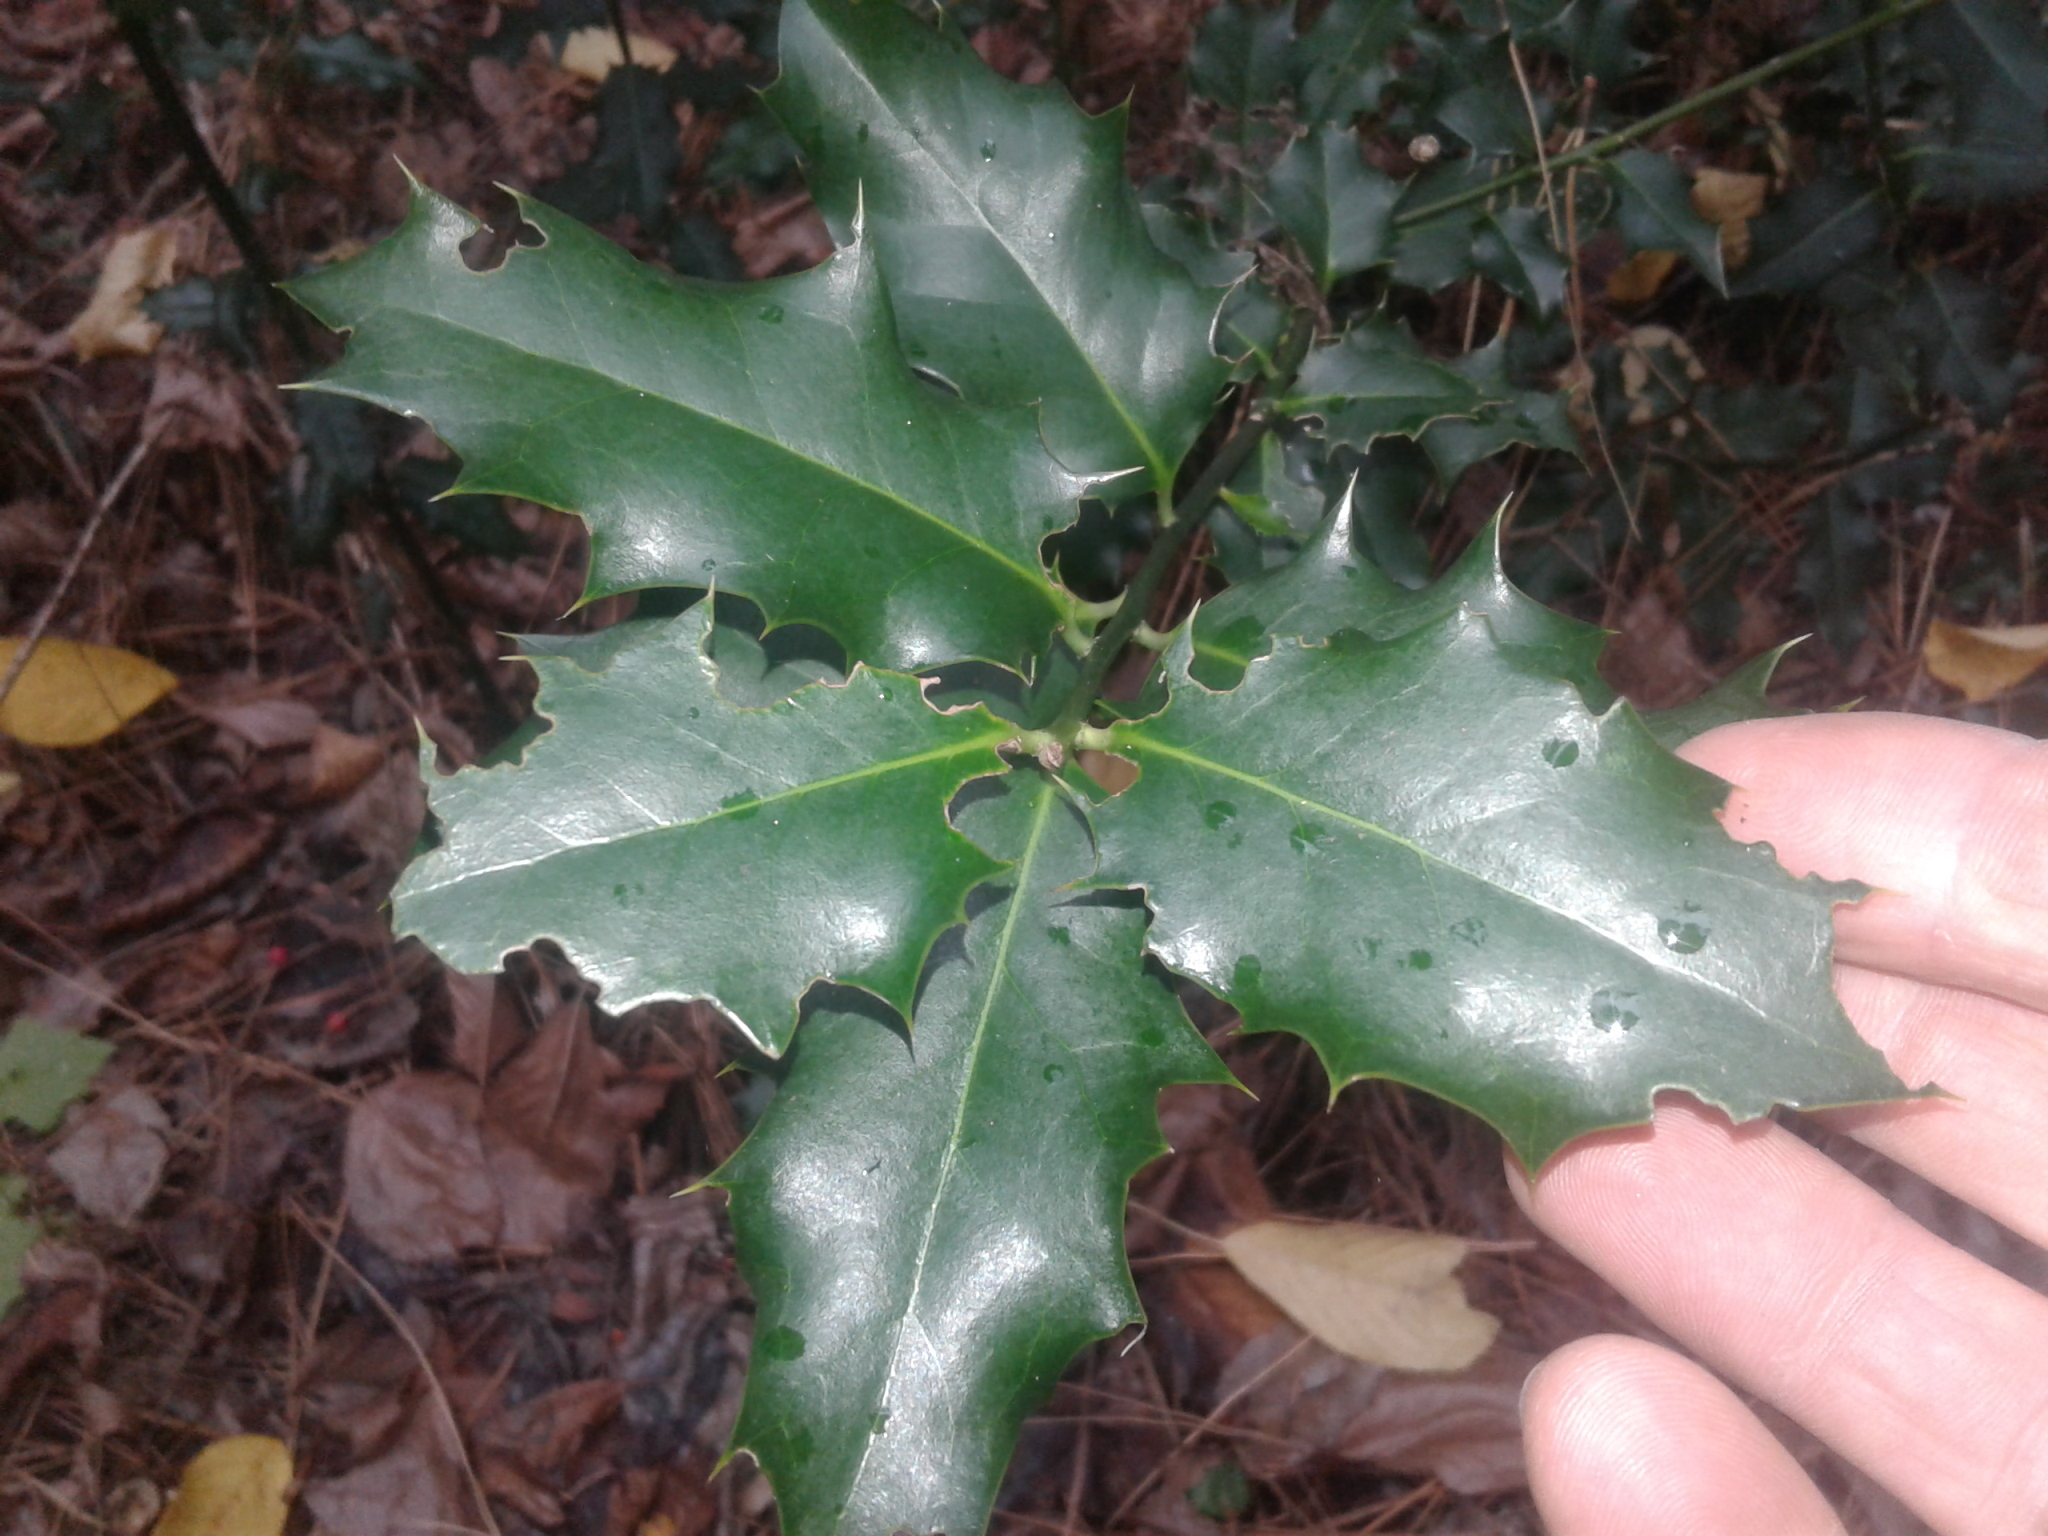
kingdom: Plantae
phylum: Tracheophyta
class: Magnoliopsida
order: Aquifoliales
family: Aquifoliaceae
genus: Ilex
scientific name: Ilex aquifolium
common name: English holly
